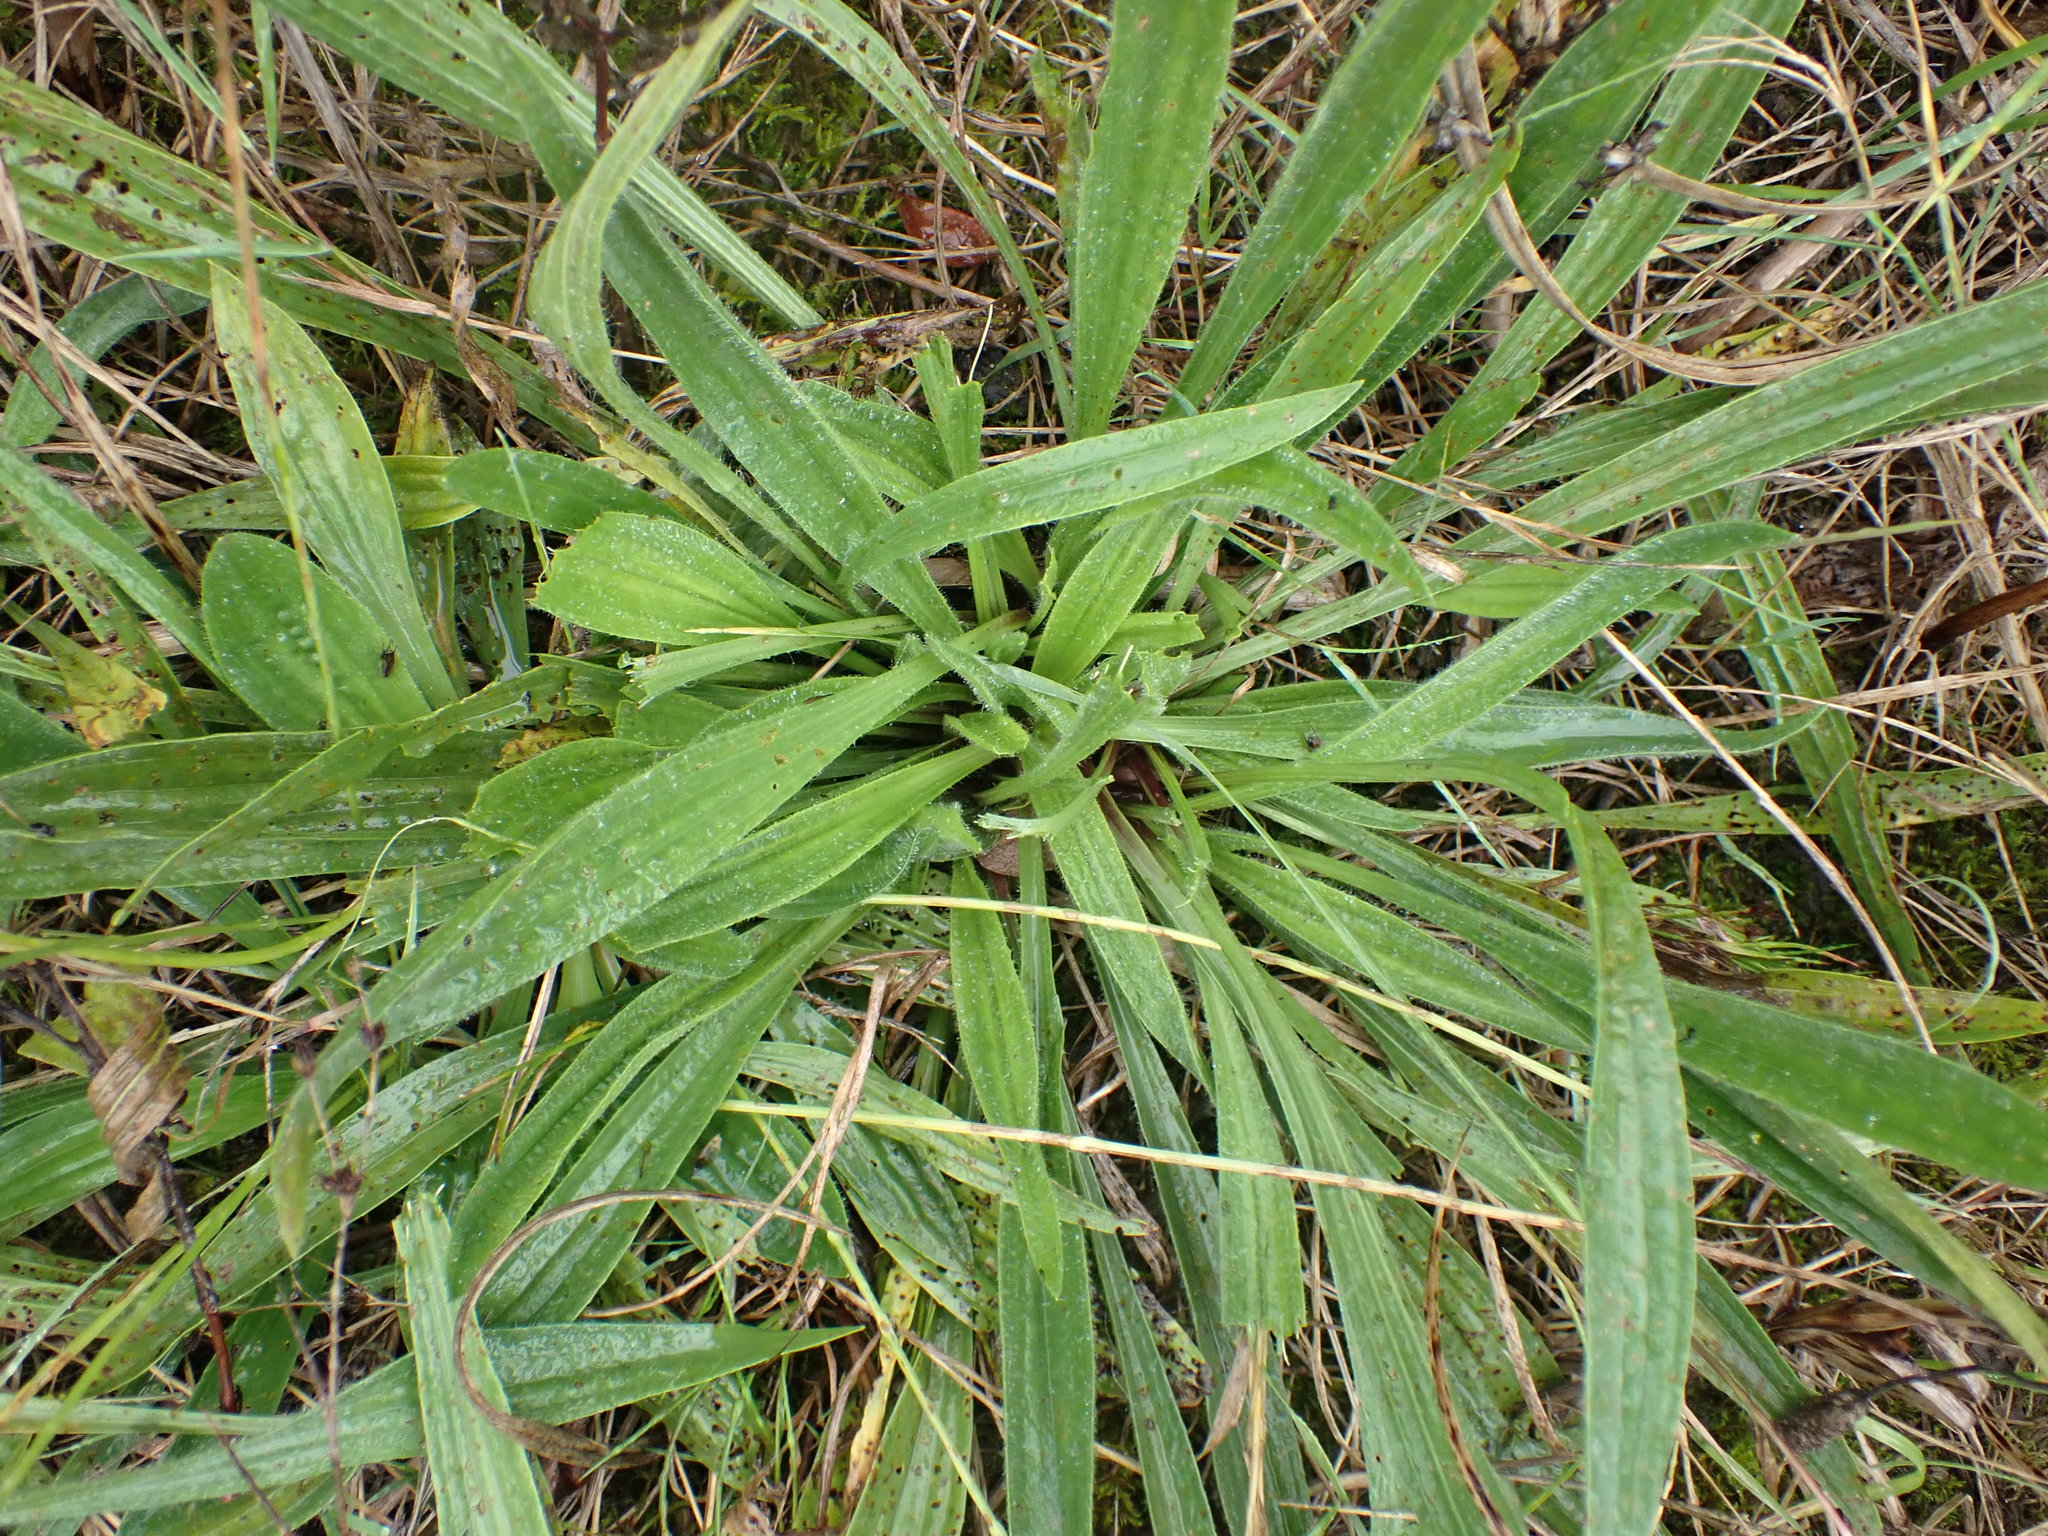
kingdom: Plantae
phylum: Tracheophyta
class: Magnoliopsida
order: Lamiales
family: Plantaginaceae
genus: Plantago
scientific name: Plantago lanceolata
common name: Ribwort plantain
